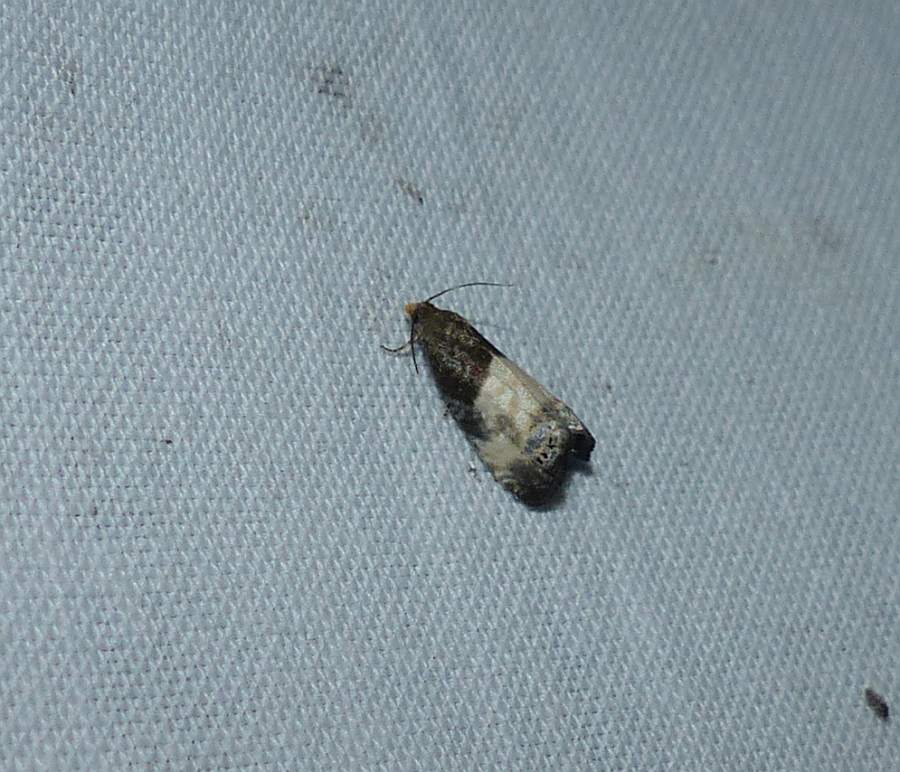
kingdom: Animalia
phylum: Arthropoda
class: Insecta
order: Lepidoptera
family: Tortricidae
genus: Notocelia
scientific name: Notocelia cynosbatella
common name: Yellow-faced bell moth
